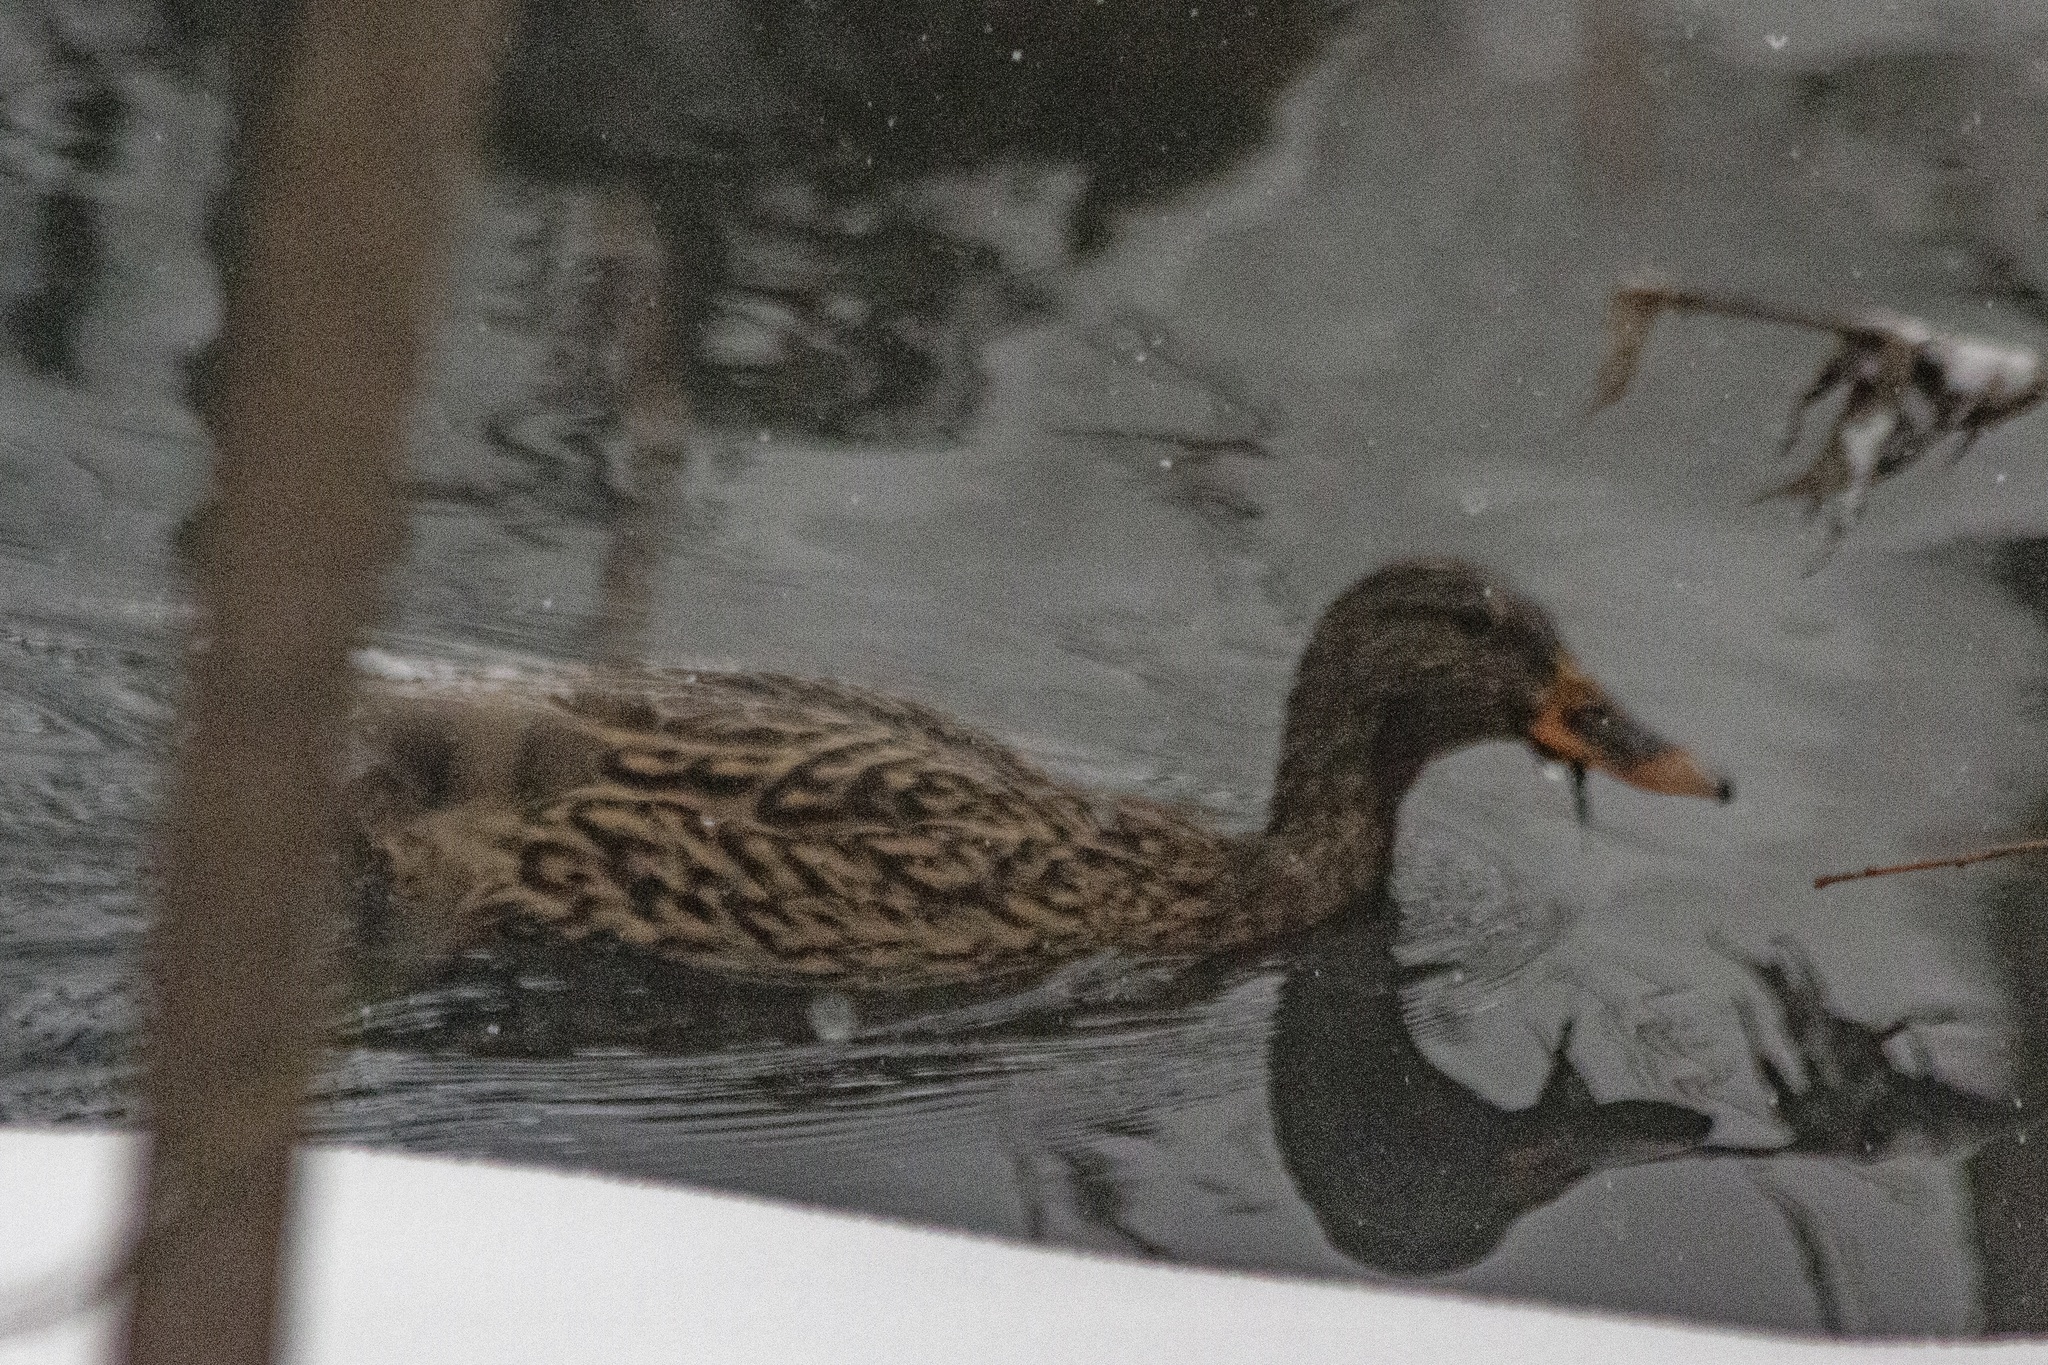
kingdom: Animalia
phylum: Chordata
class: Aves
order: Anseriformes
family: Anatidae
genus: Anas
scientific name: Anas platyrhynchos
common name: Mallard
